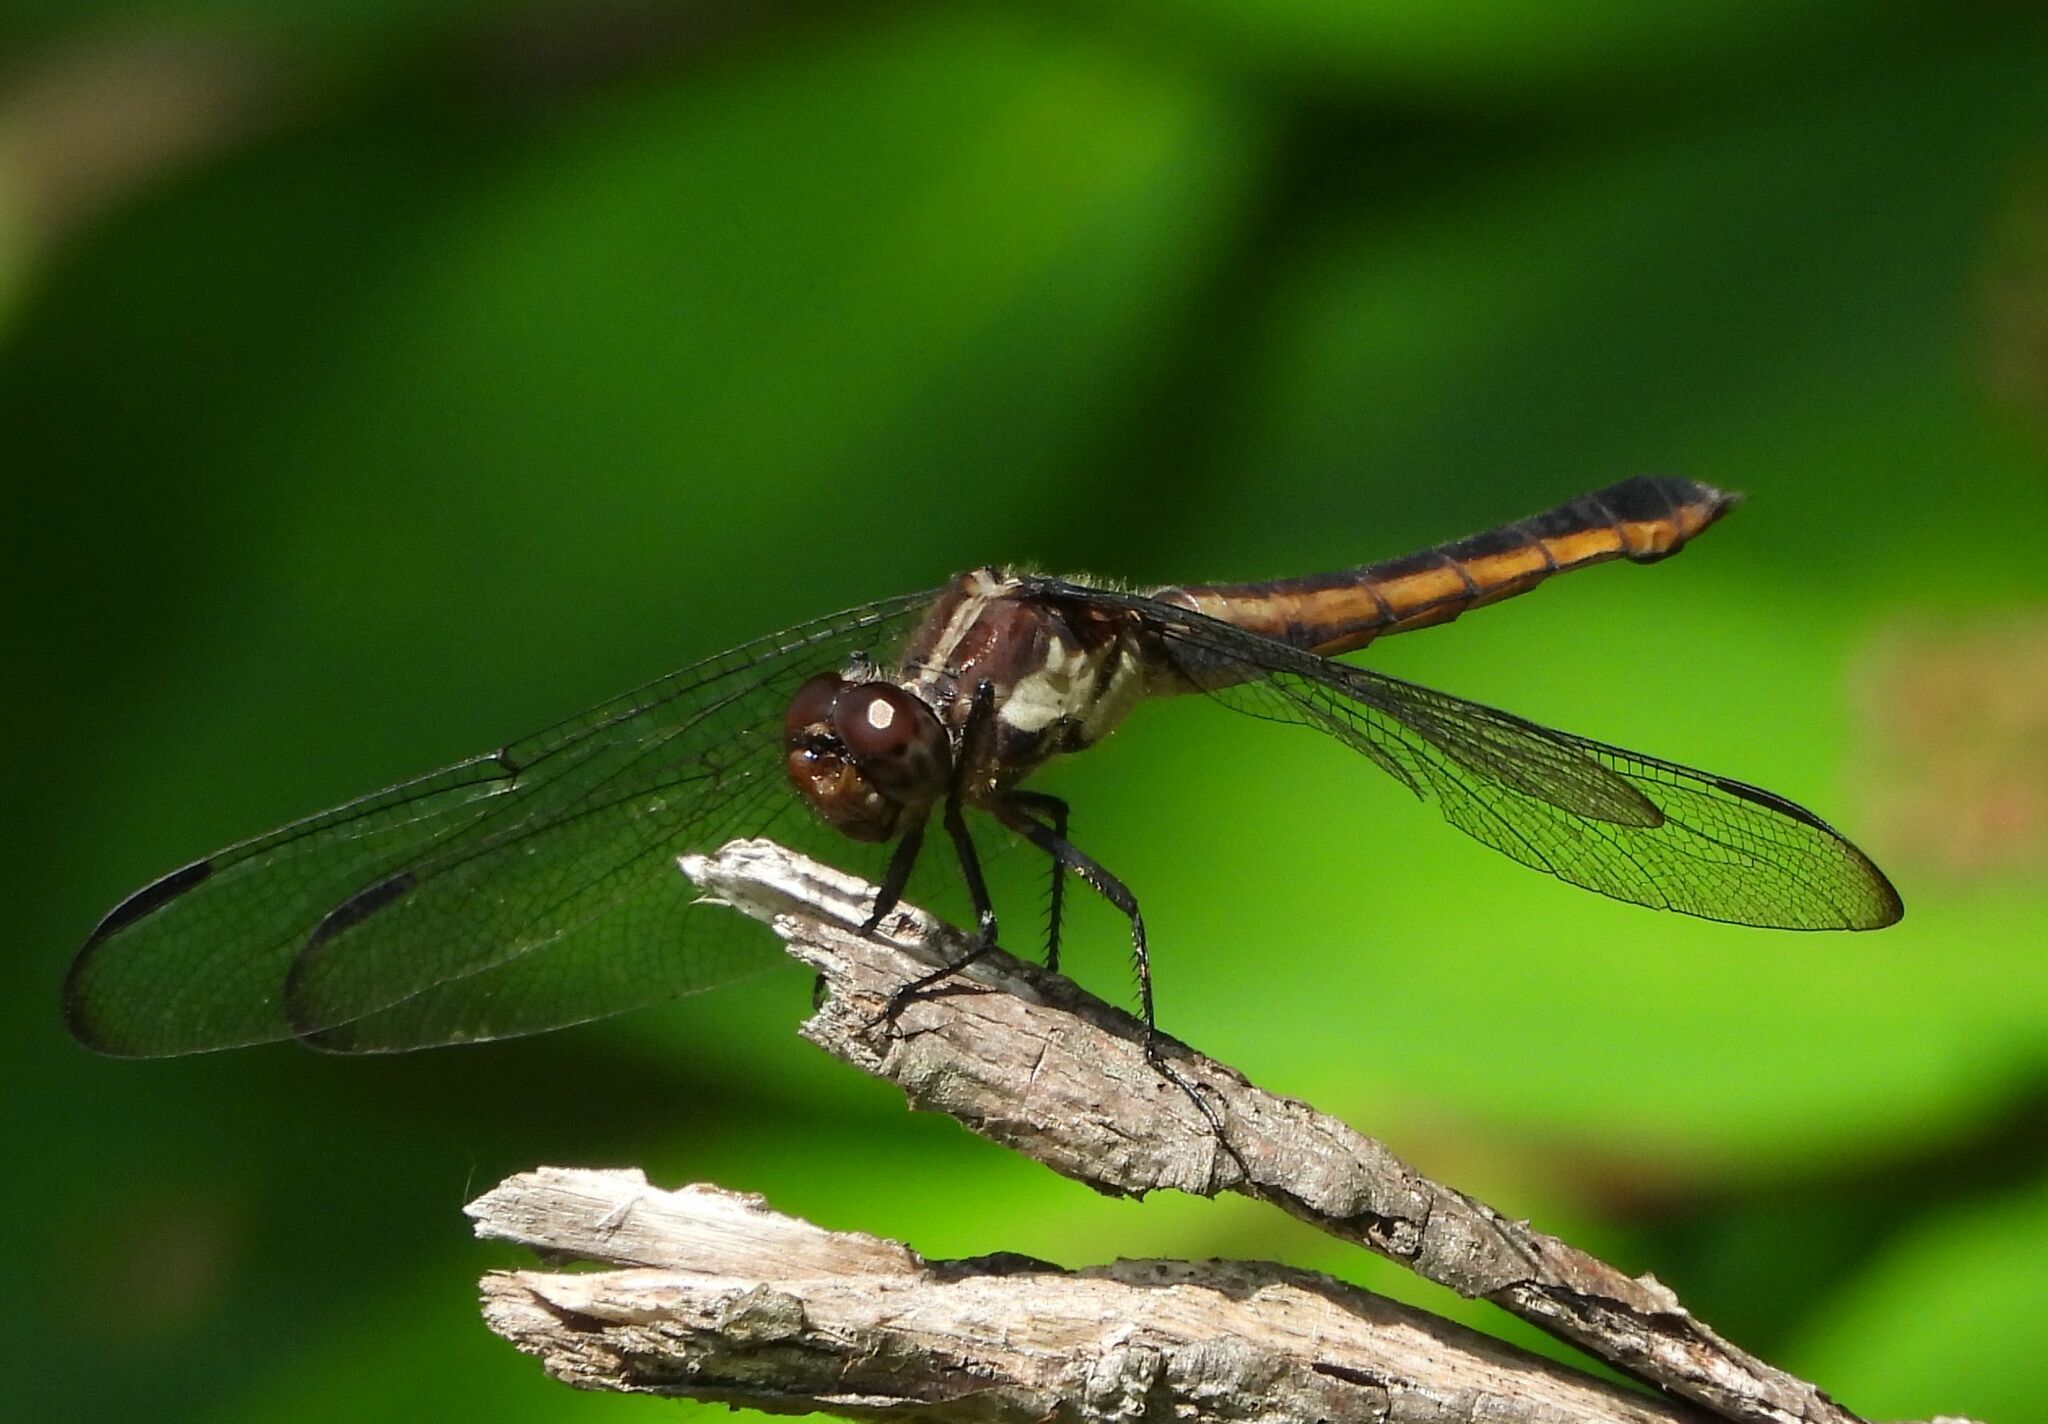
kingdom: Animalia
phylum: Arthropoda
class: Insecta
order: Odonata
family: Libellulidae
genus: Libellula
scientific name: Libellula incesta
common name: Slaty skimmer
